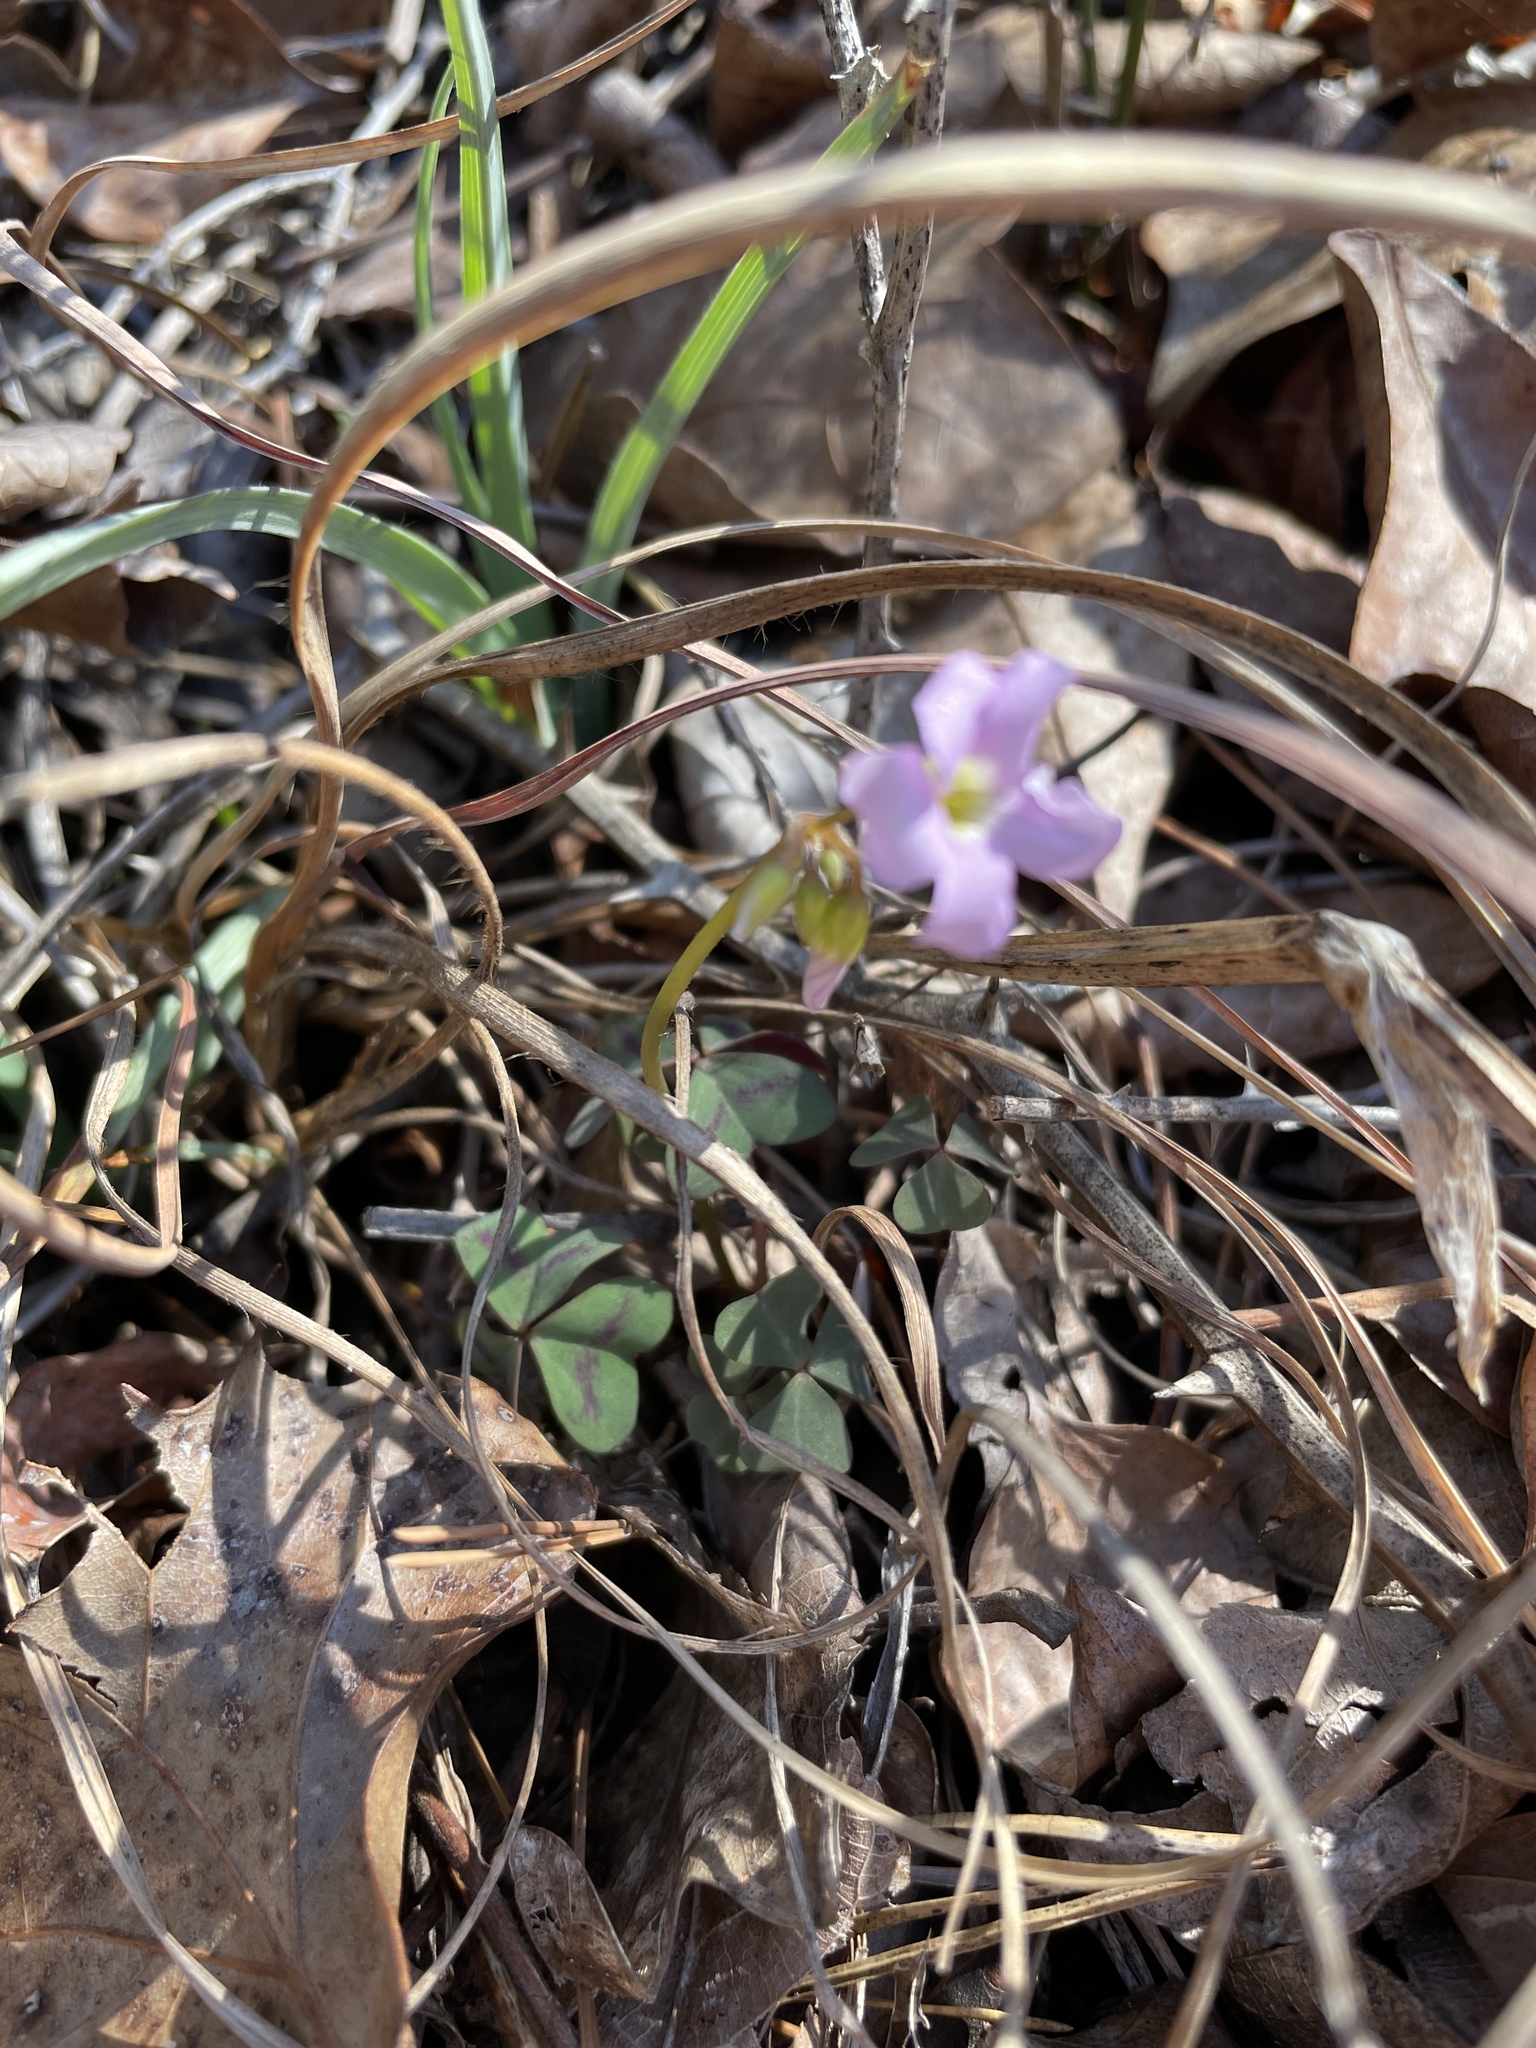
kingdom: Plantae
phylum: Tracheophyta
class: Magnoliopsida
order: Oxalidales
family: Oxalidaceae
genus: Oxalis
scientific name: Oxalis violacea
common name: Violet wood-sorrel
